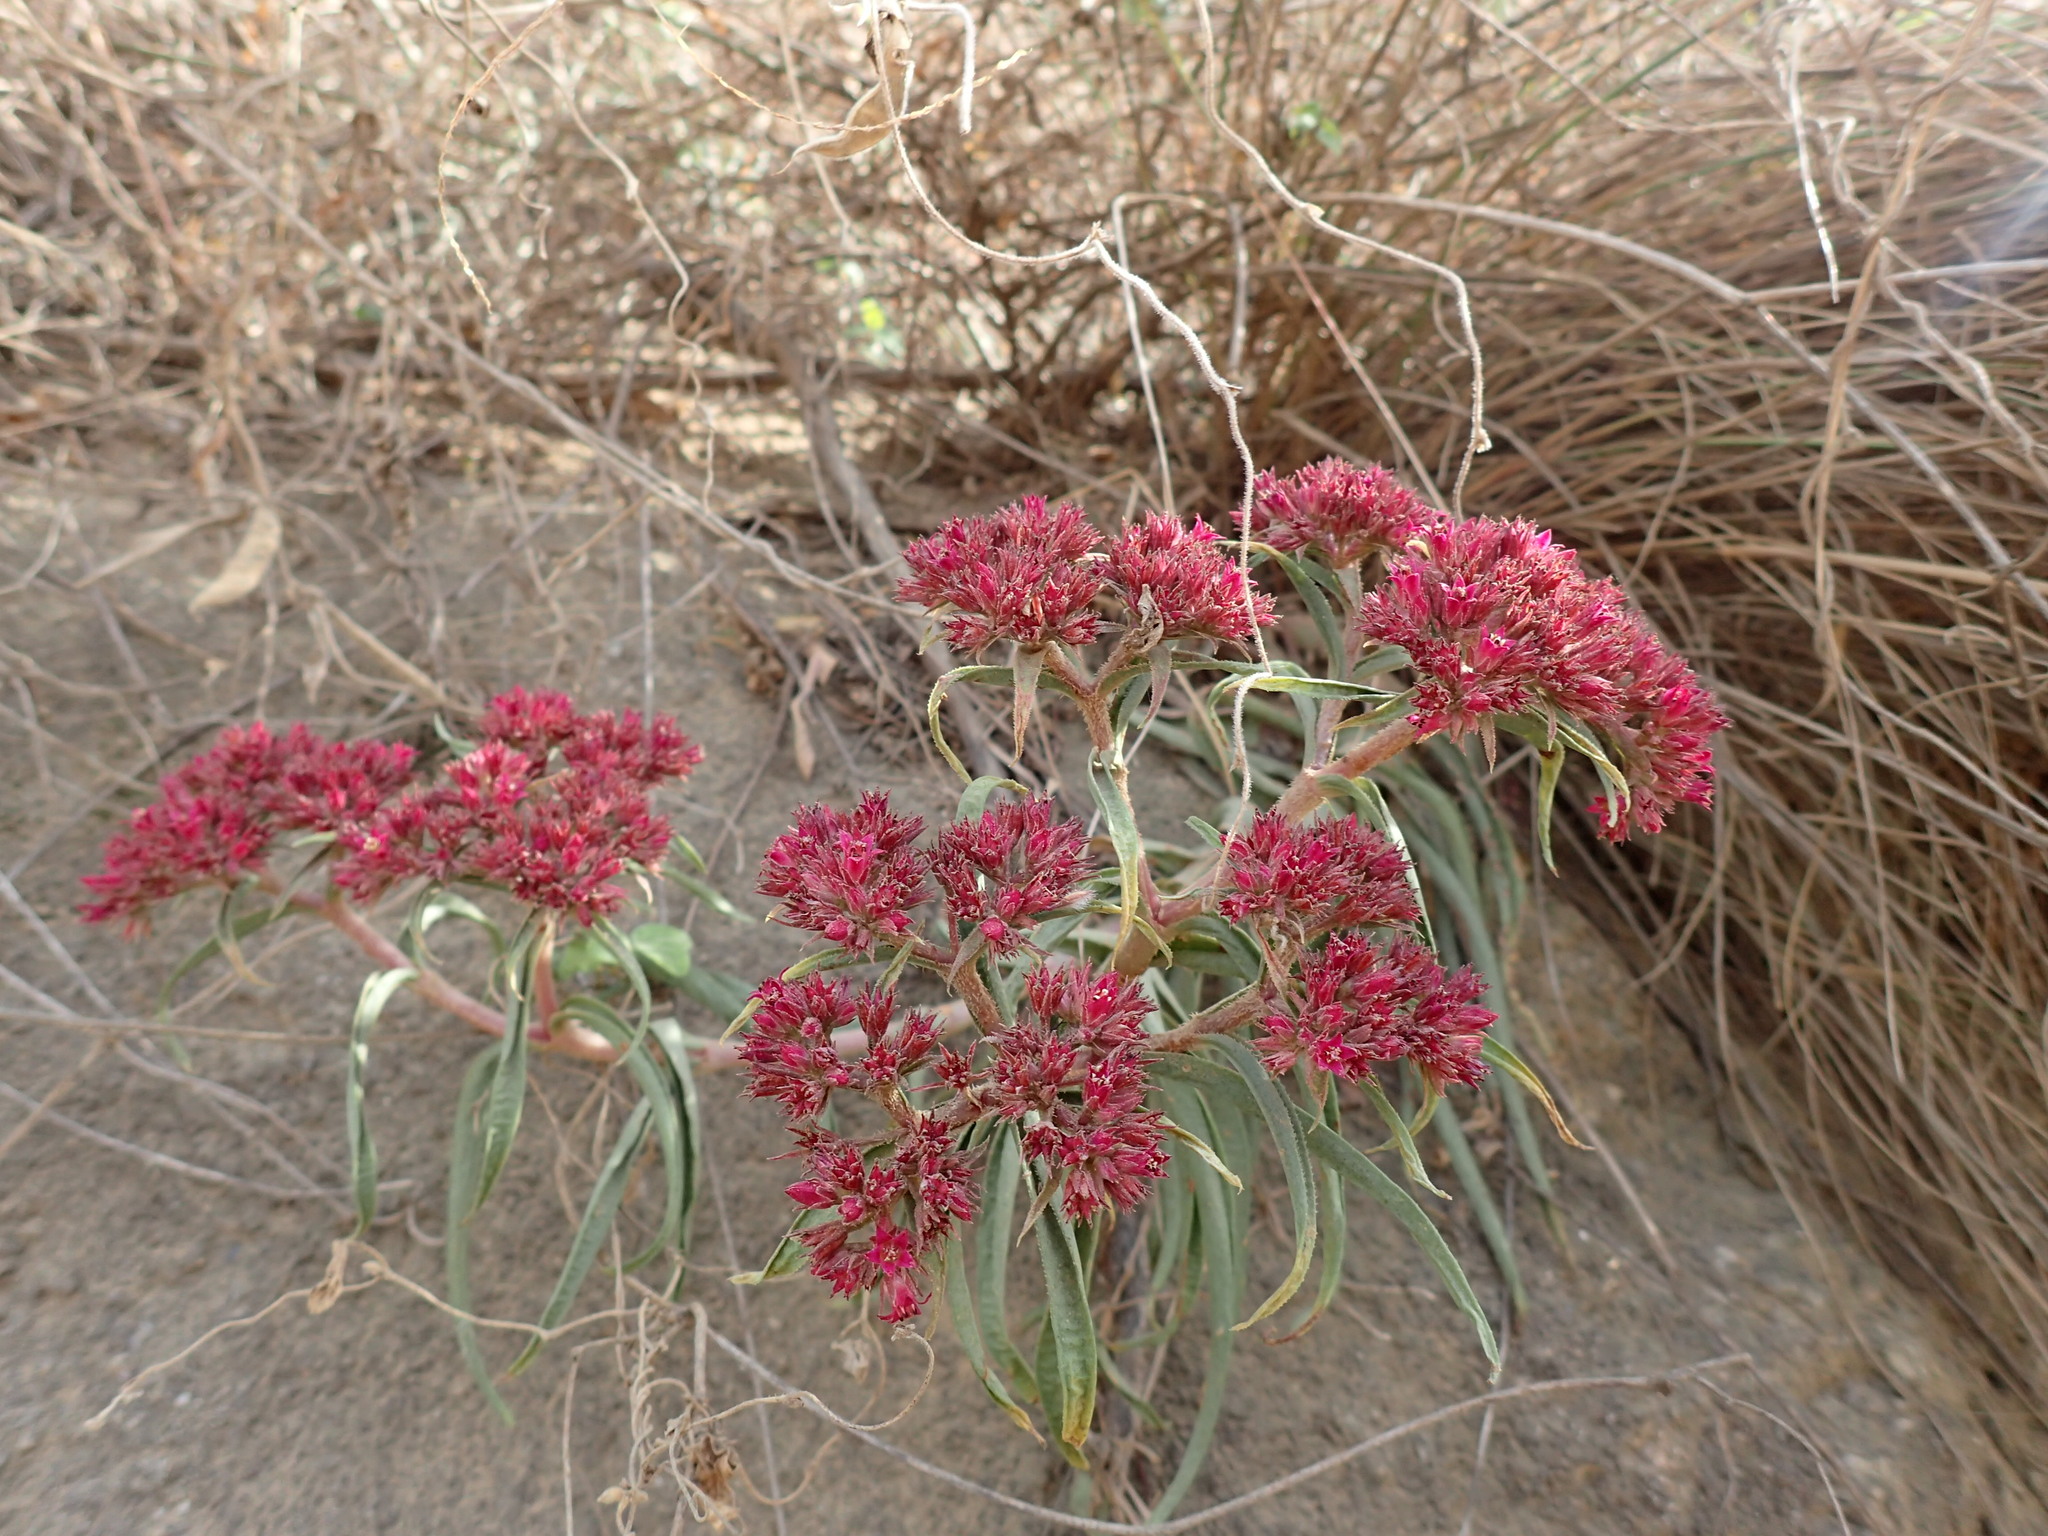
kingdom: Plantae
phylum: Tracheophyta
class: Magnoliopsida
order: Saxifragales
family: Crassulaceae
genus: Crassula
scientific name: Crassula alba
